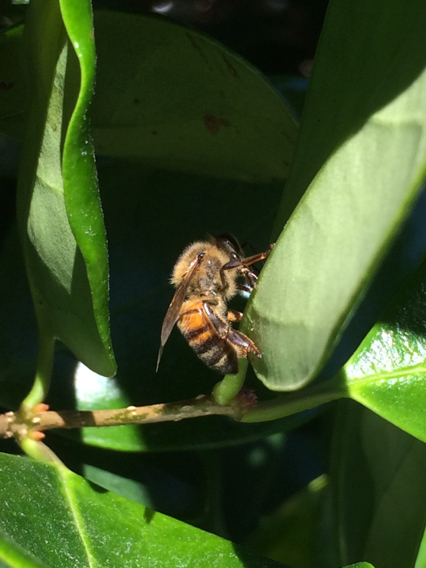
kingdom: Animalia
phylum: Arthropoda
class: Insecta
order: Hymenoptera
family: Apidae
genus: Apis
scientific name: Apis mellifera
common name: Honey bee
